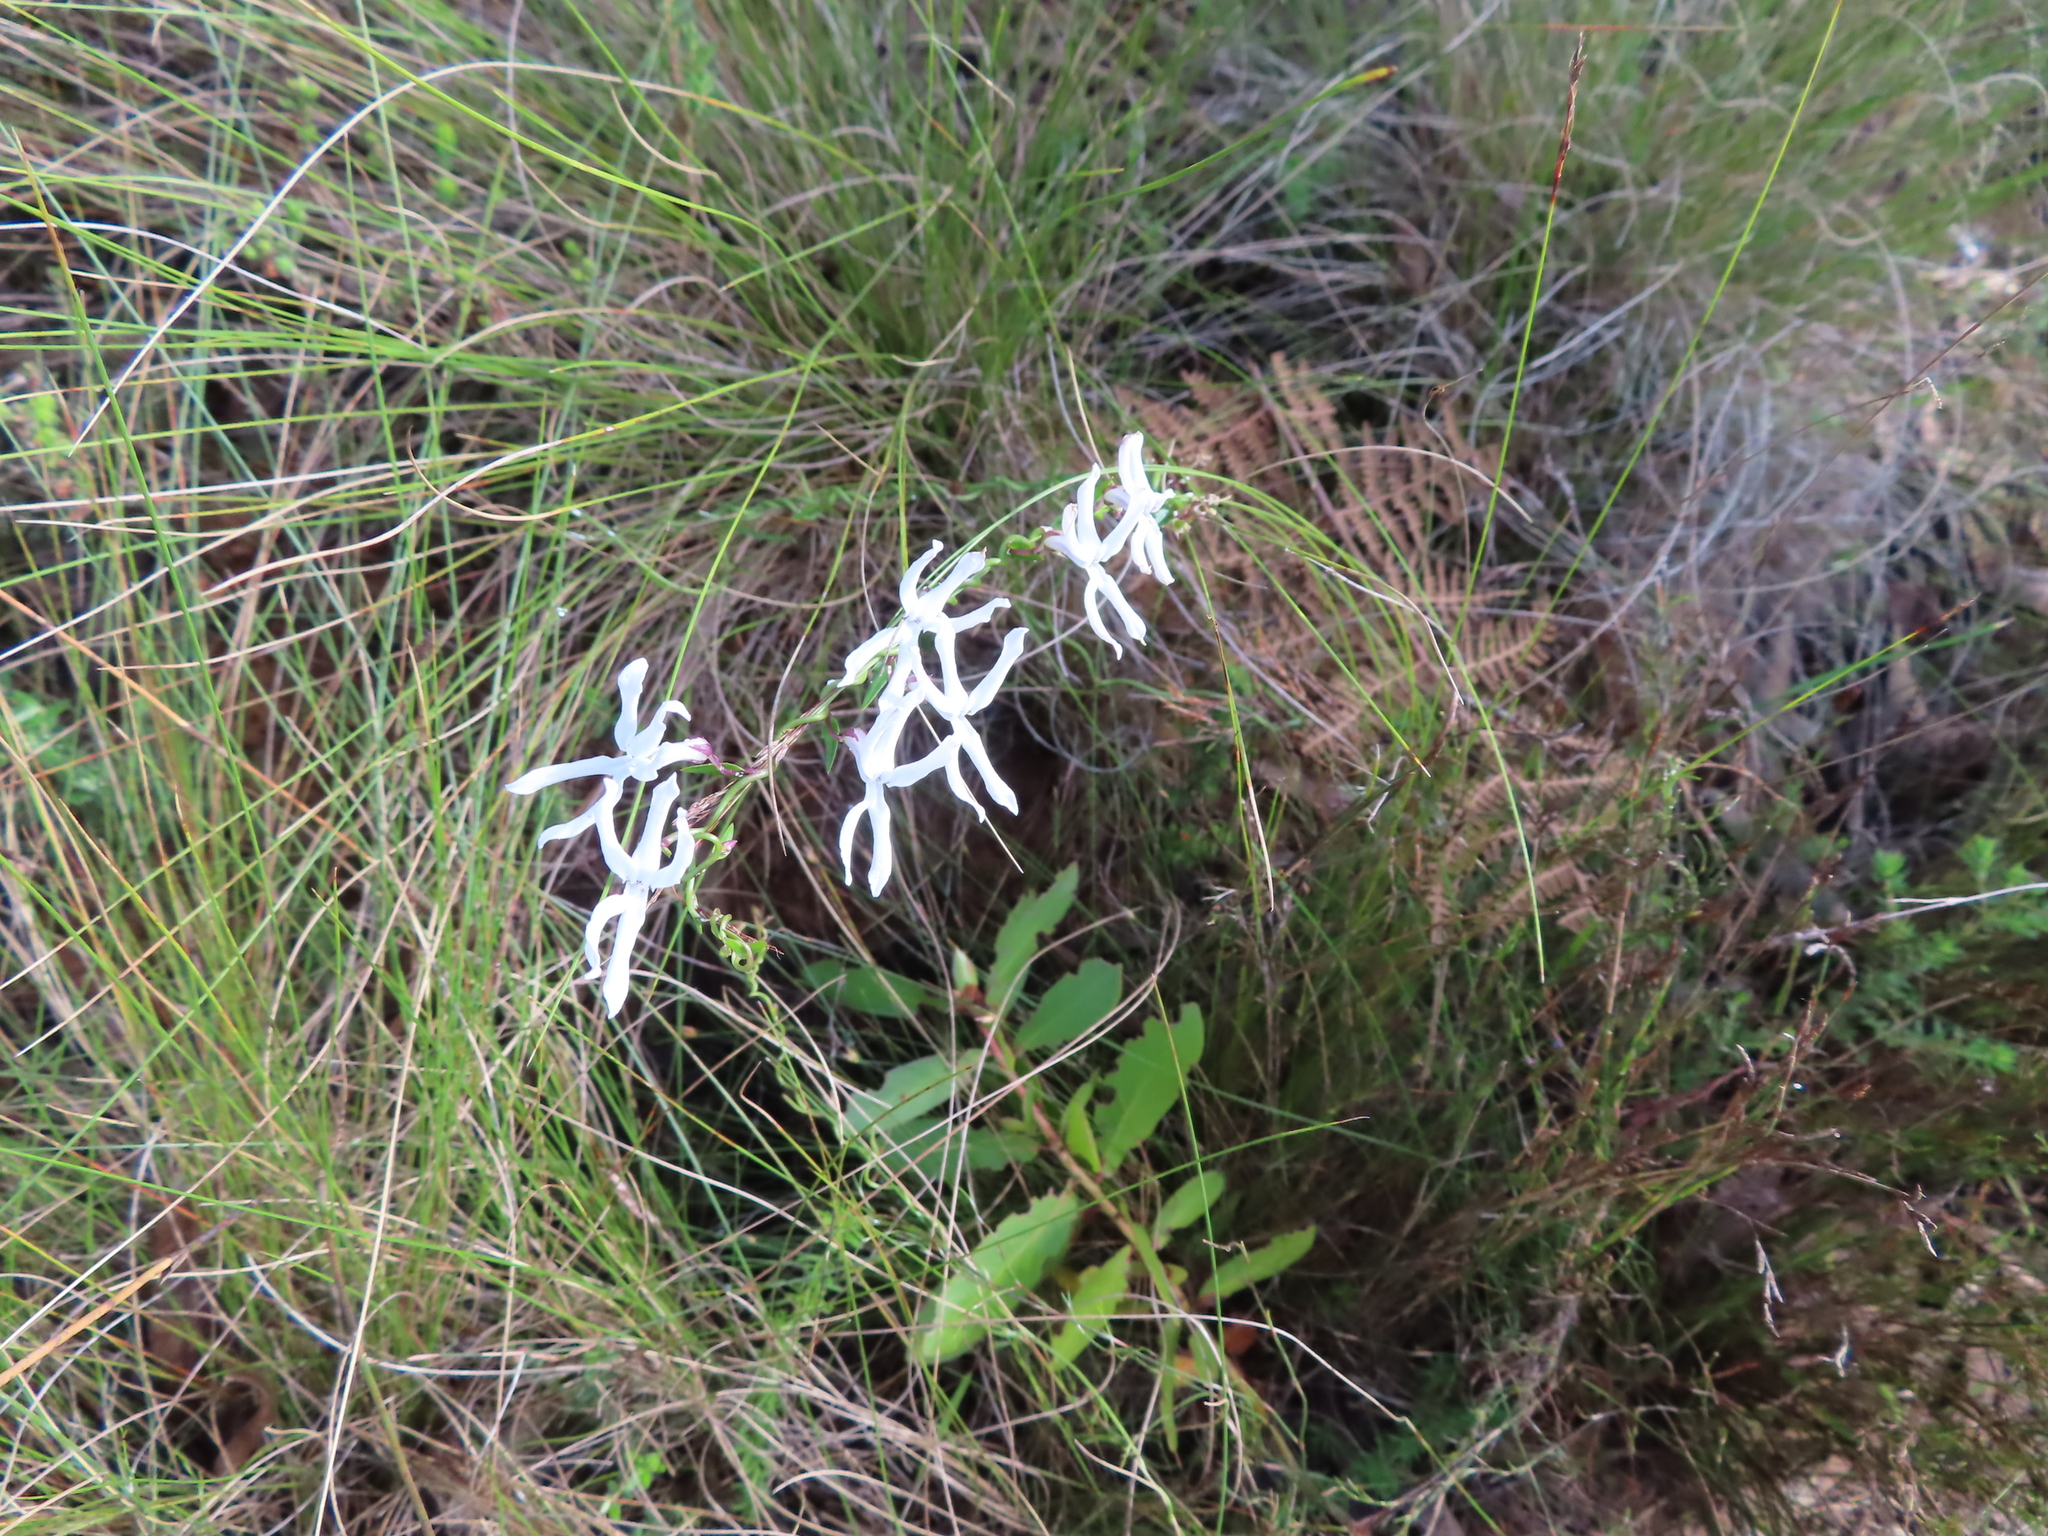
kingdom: Plantae
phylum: Tracheophyta
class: Magnoliopsida
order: Asterales
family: Campanulaceae
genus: Cyphia
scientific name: Cyphia volubilis
